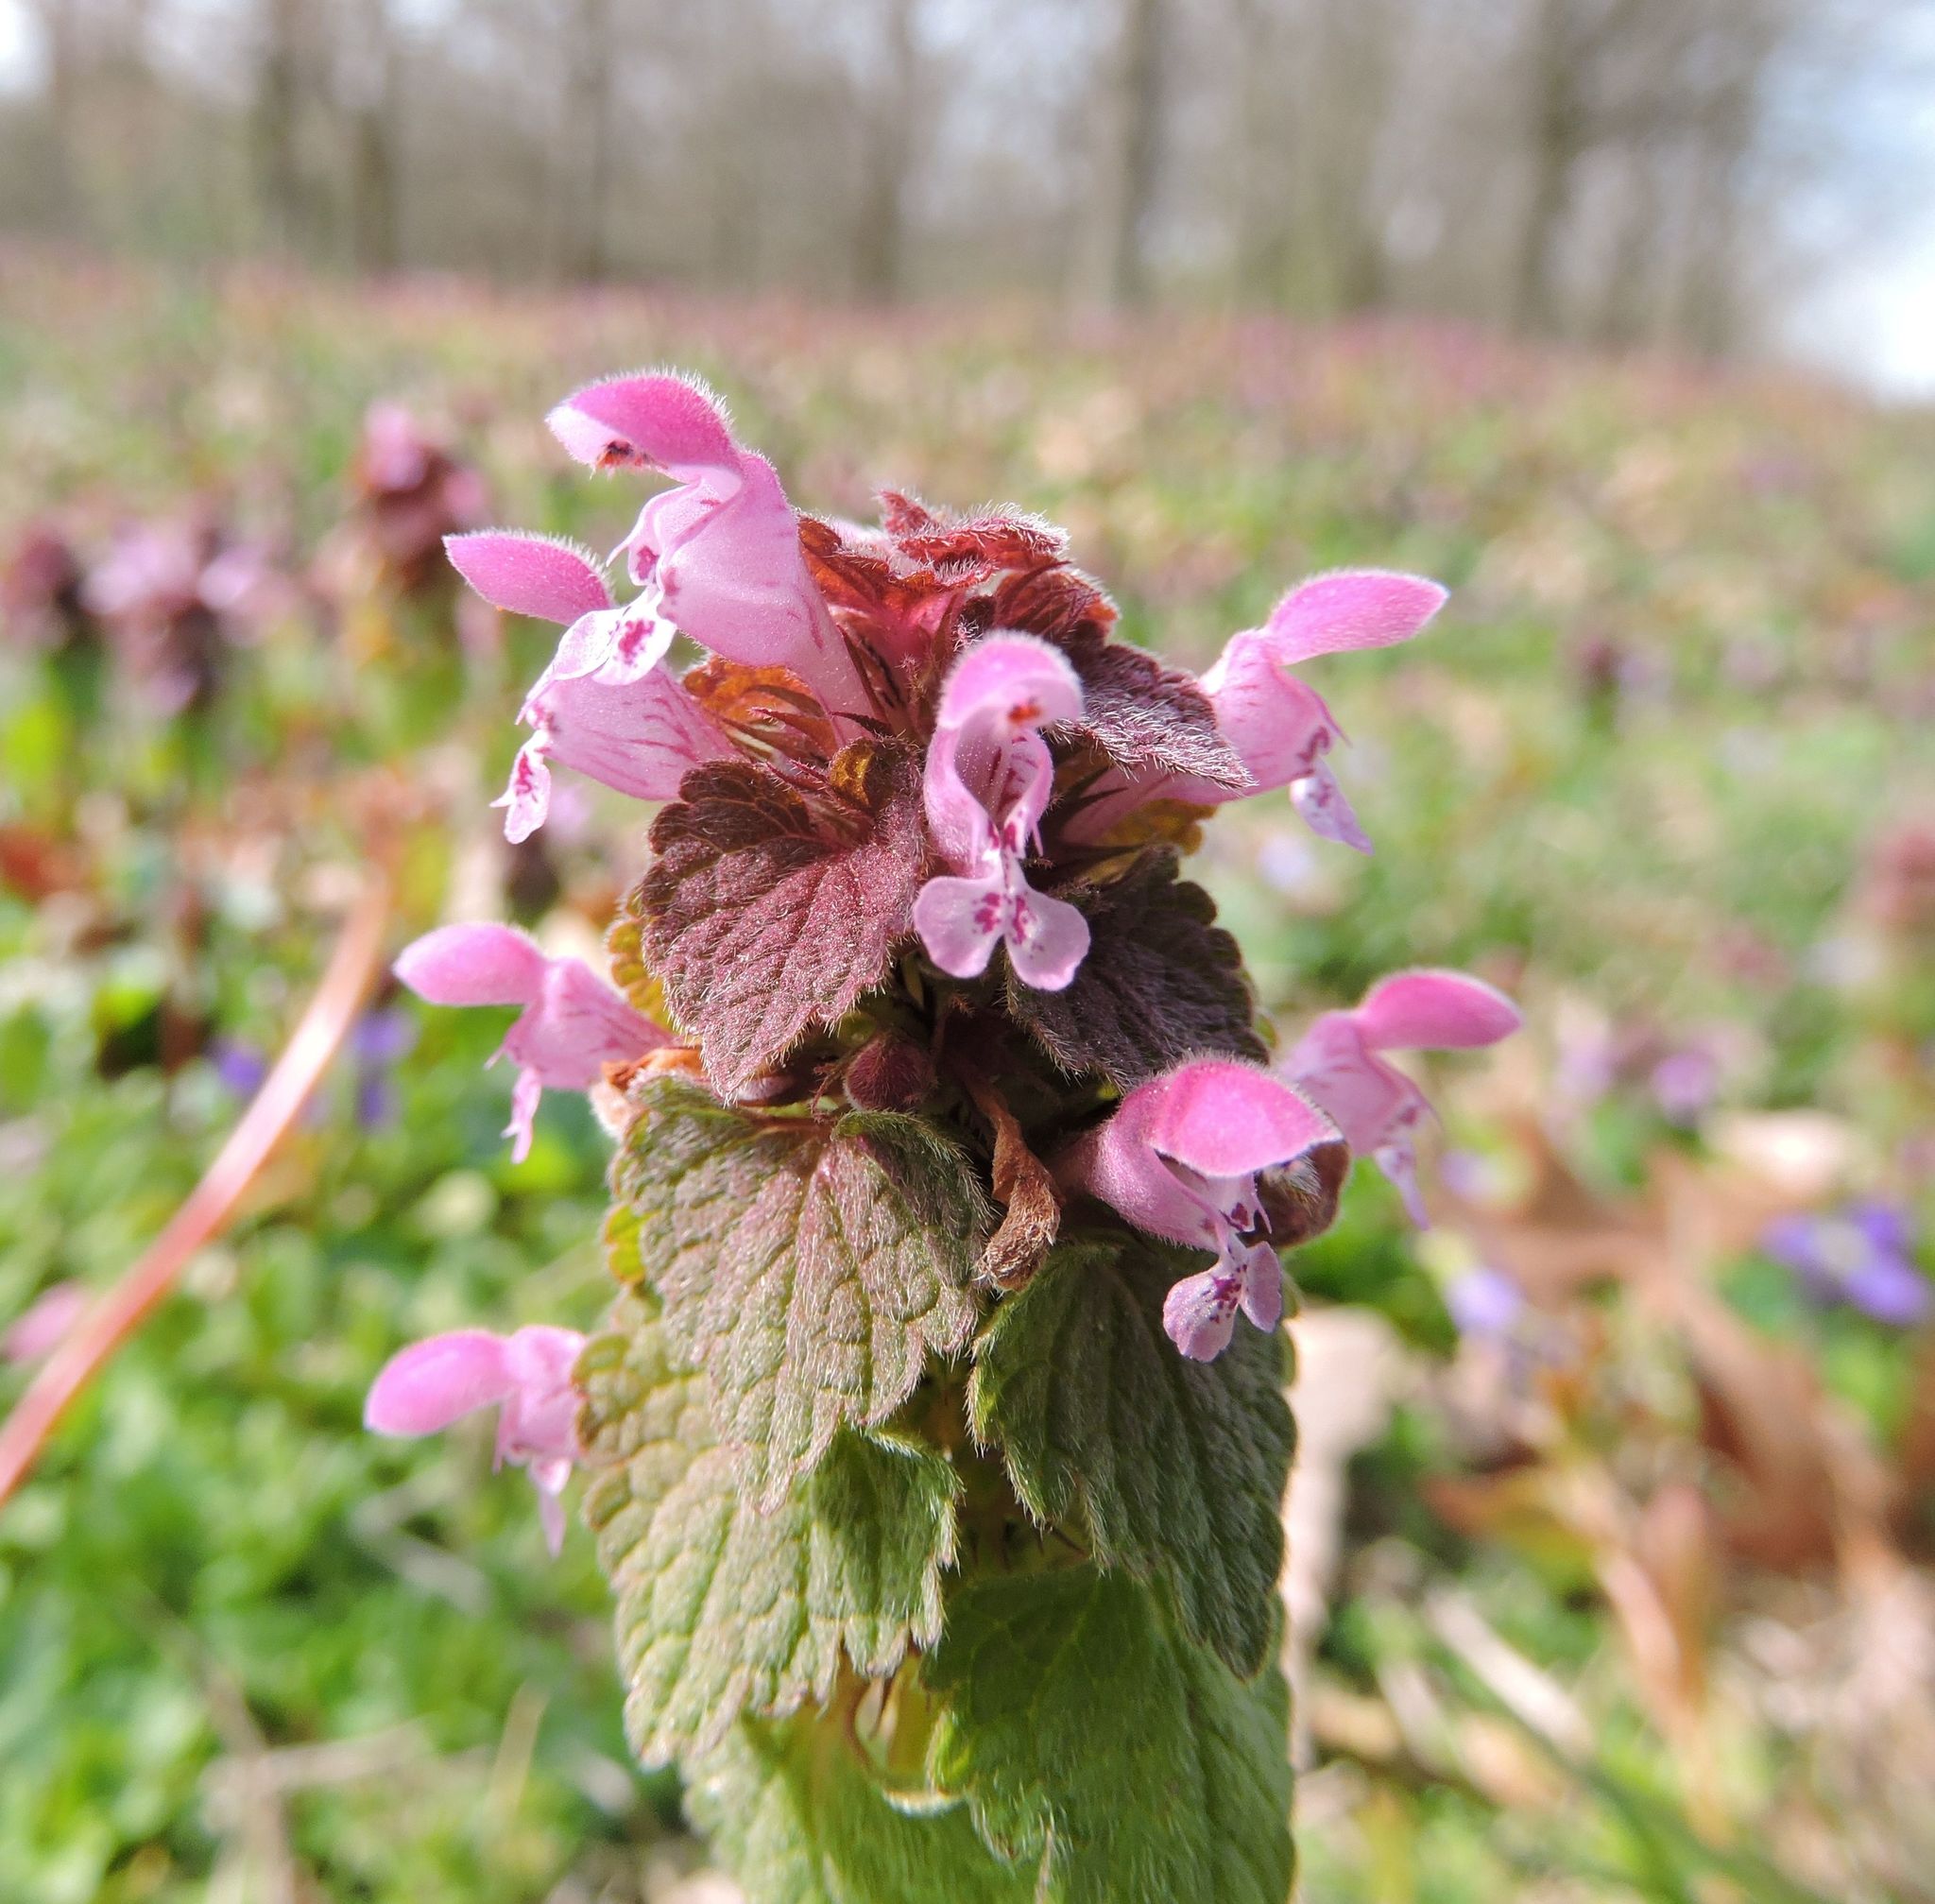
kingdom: Plantae
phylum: Tracheophyta
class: Magnoliopsida
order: Lamiales
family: Lamiaceae
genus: Lamium
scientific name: Lamium purpureum
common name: Red dead-nettle
